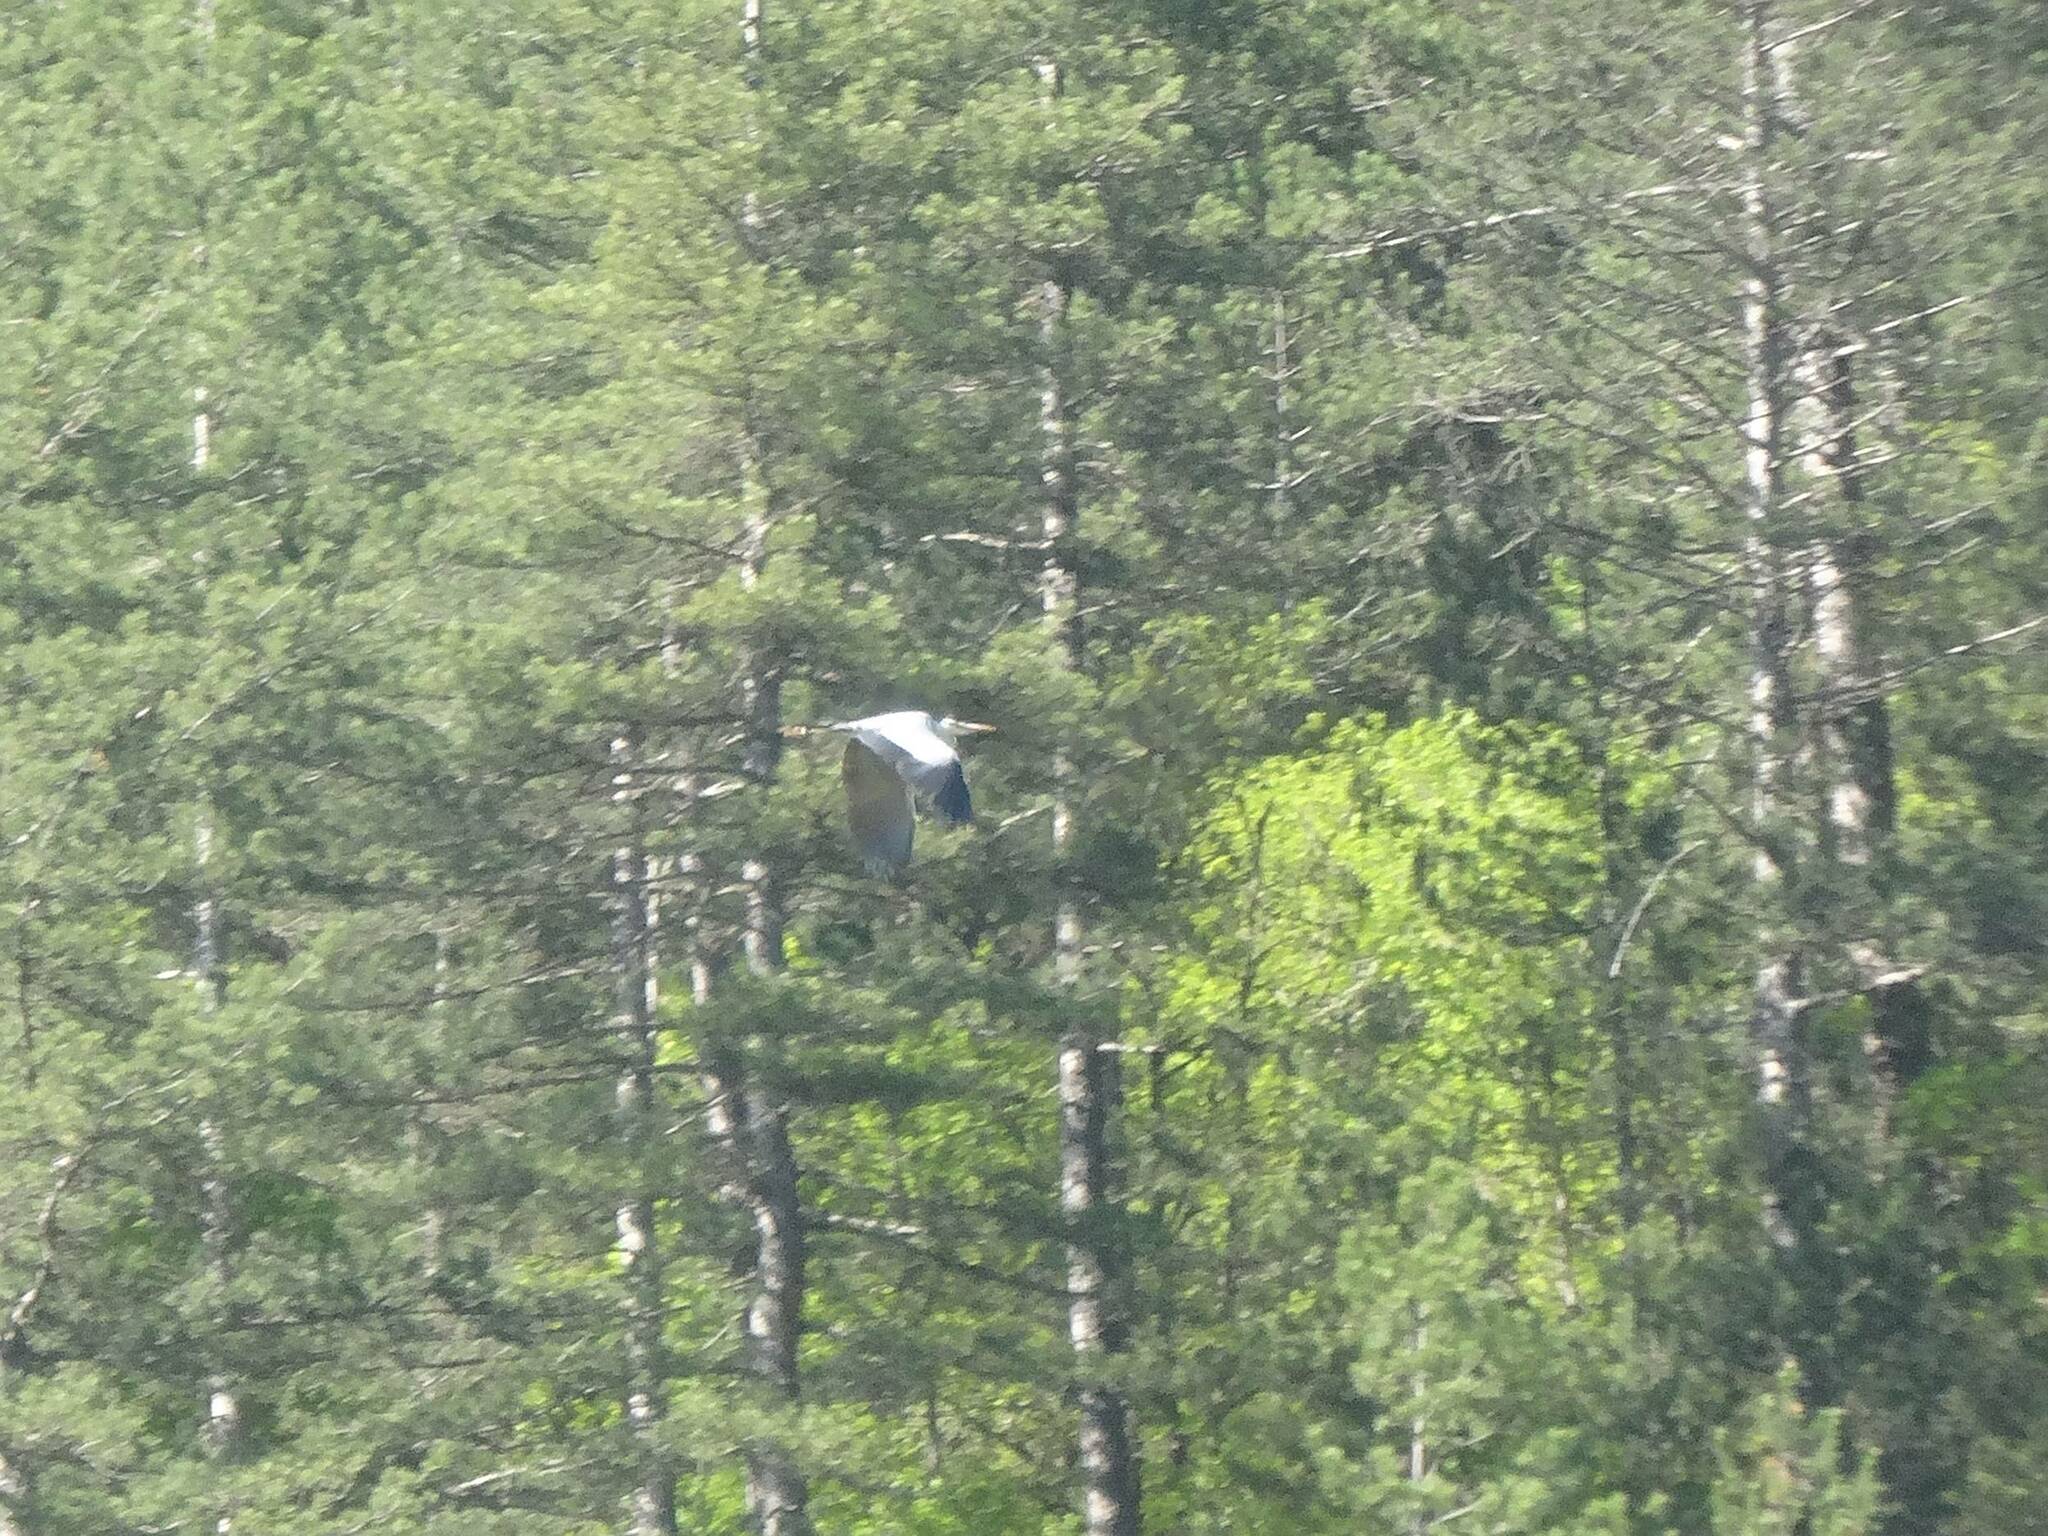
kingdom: Animalia
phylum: Chordata
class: Aves
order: Ciconiiformes
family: Ciconiidae
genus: Ciconia
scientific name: Ciconia ciconia
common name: White stork
